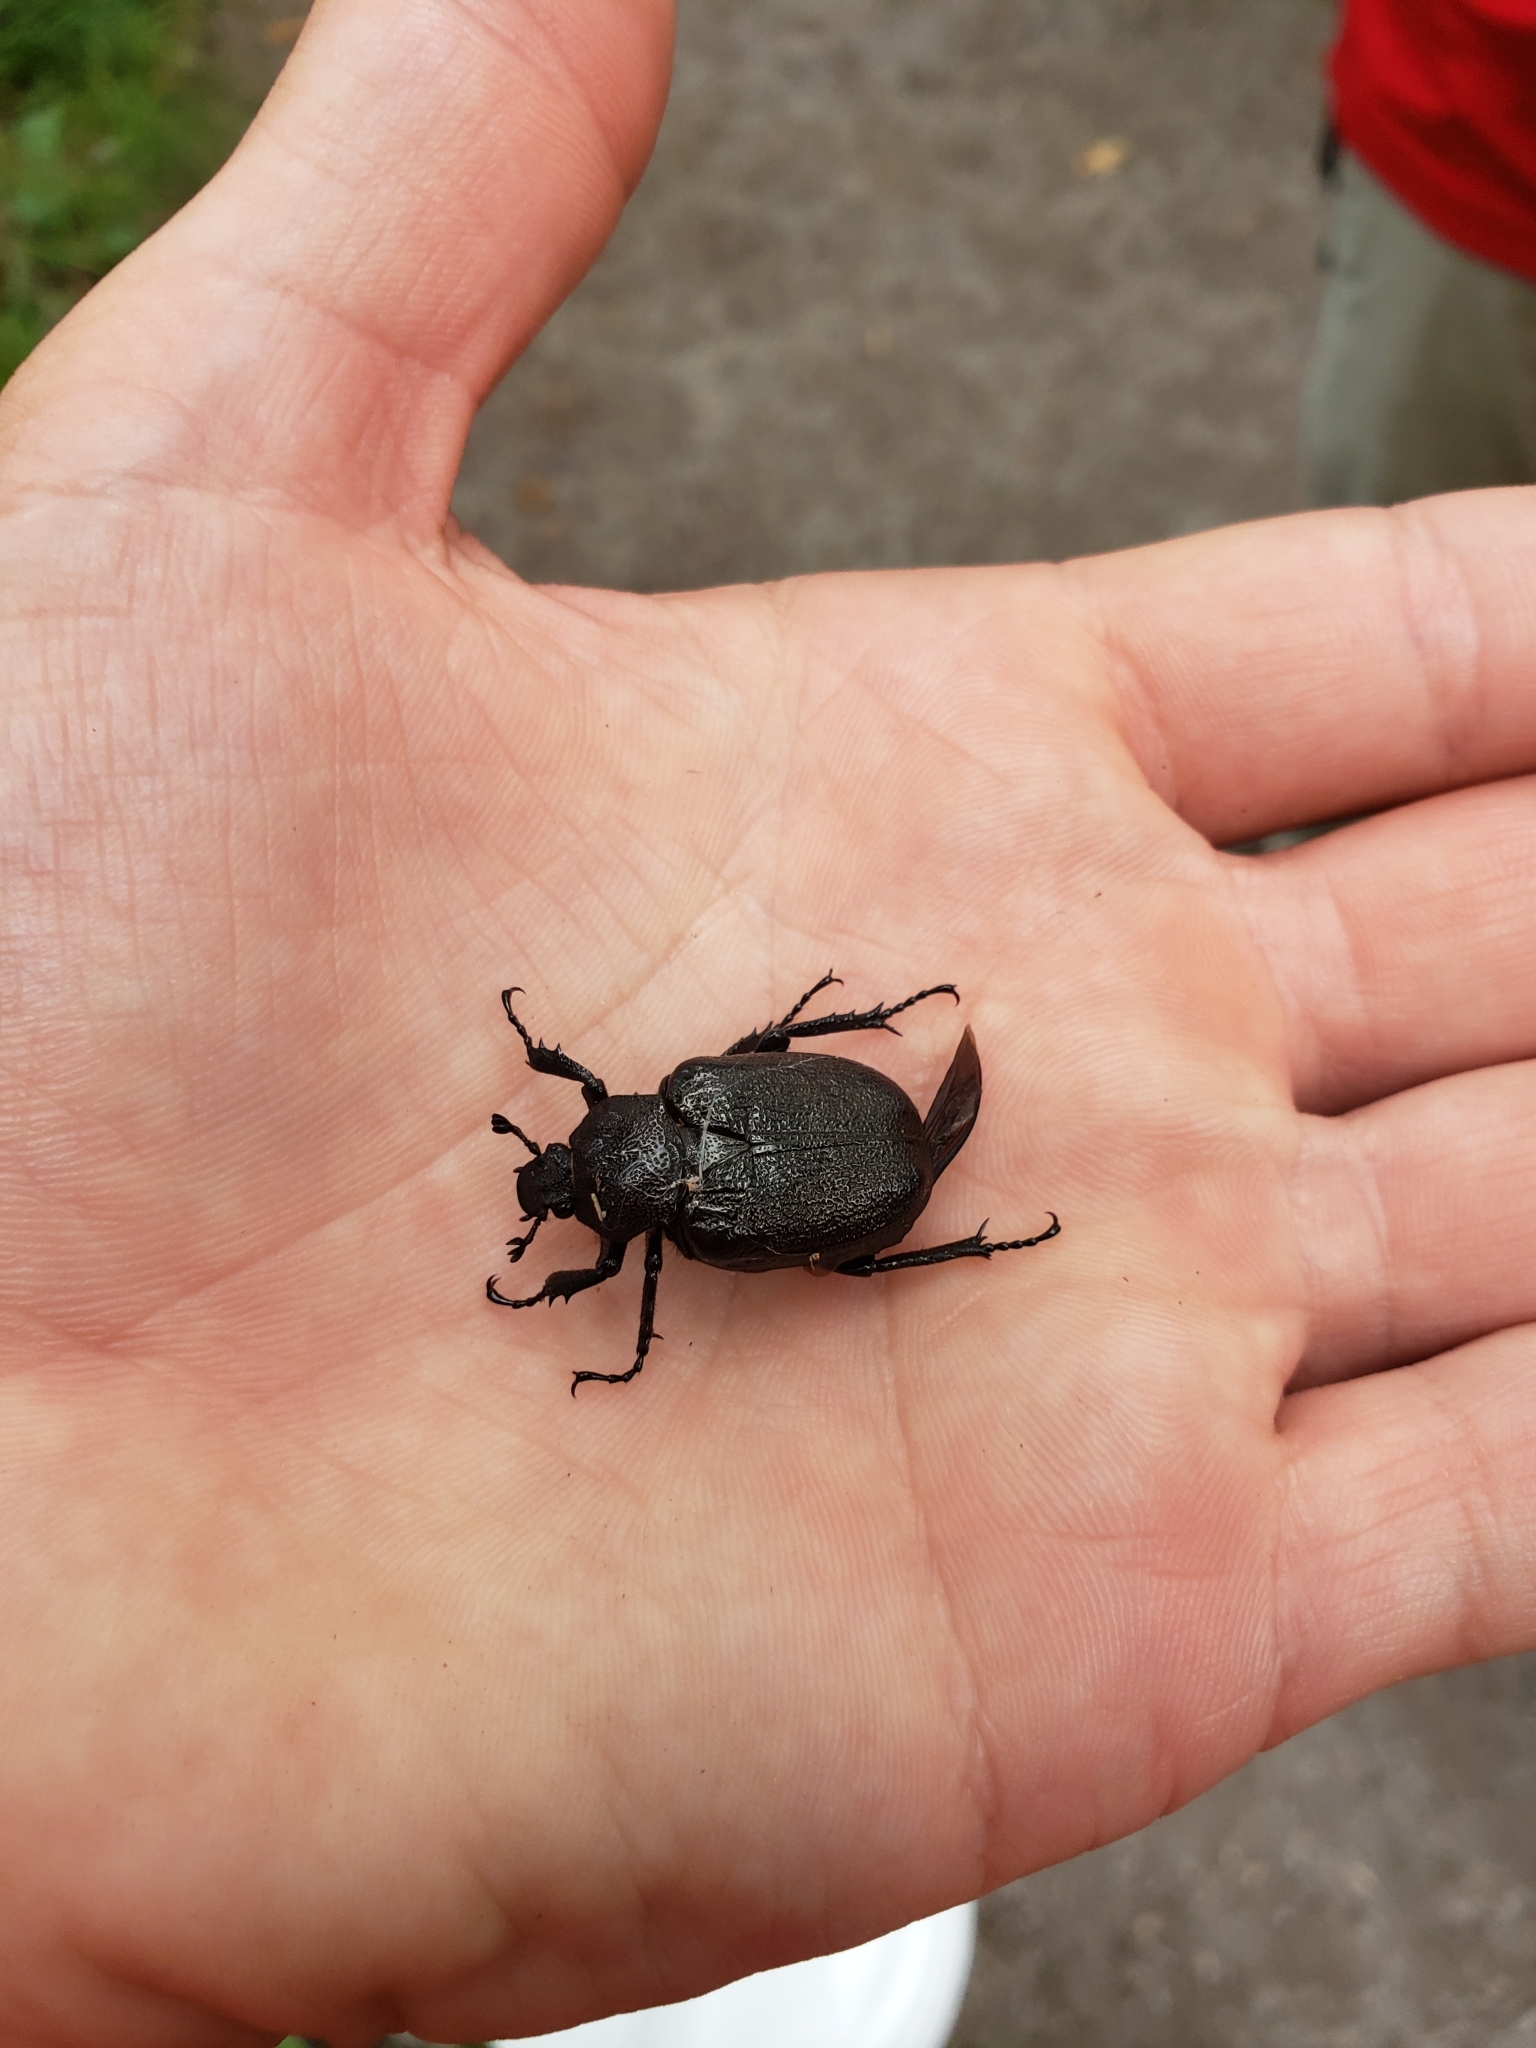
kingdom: Animalia
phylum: Arthropoda
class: Insecta
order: Coleoptera
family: Scarabaeidae
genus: Osmoderma
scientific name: Osmoderma scabra
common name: Rough hermit beetle
